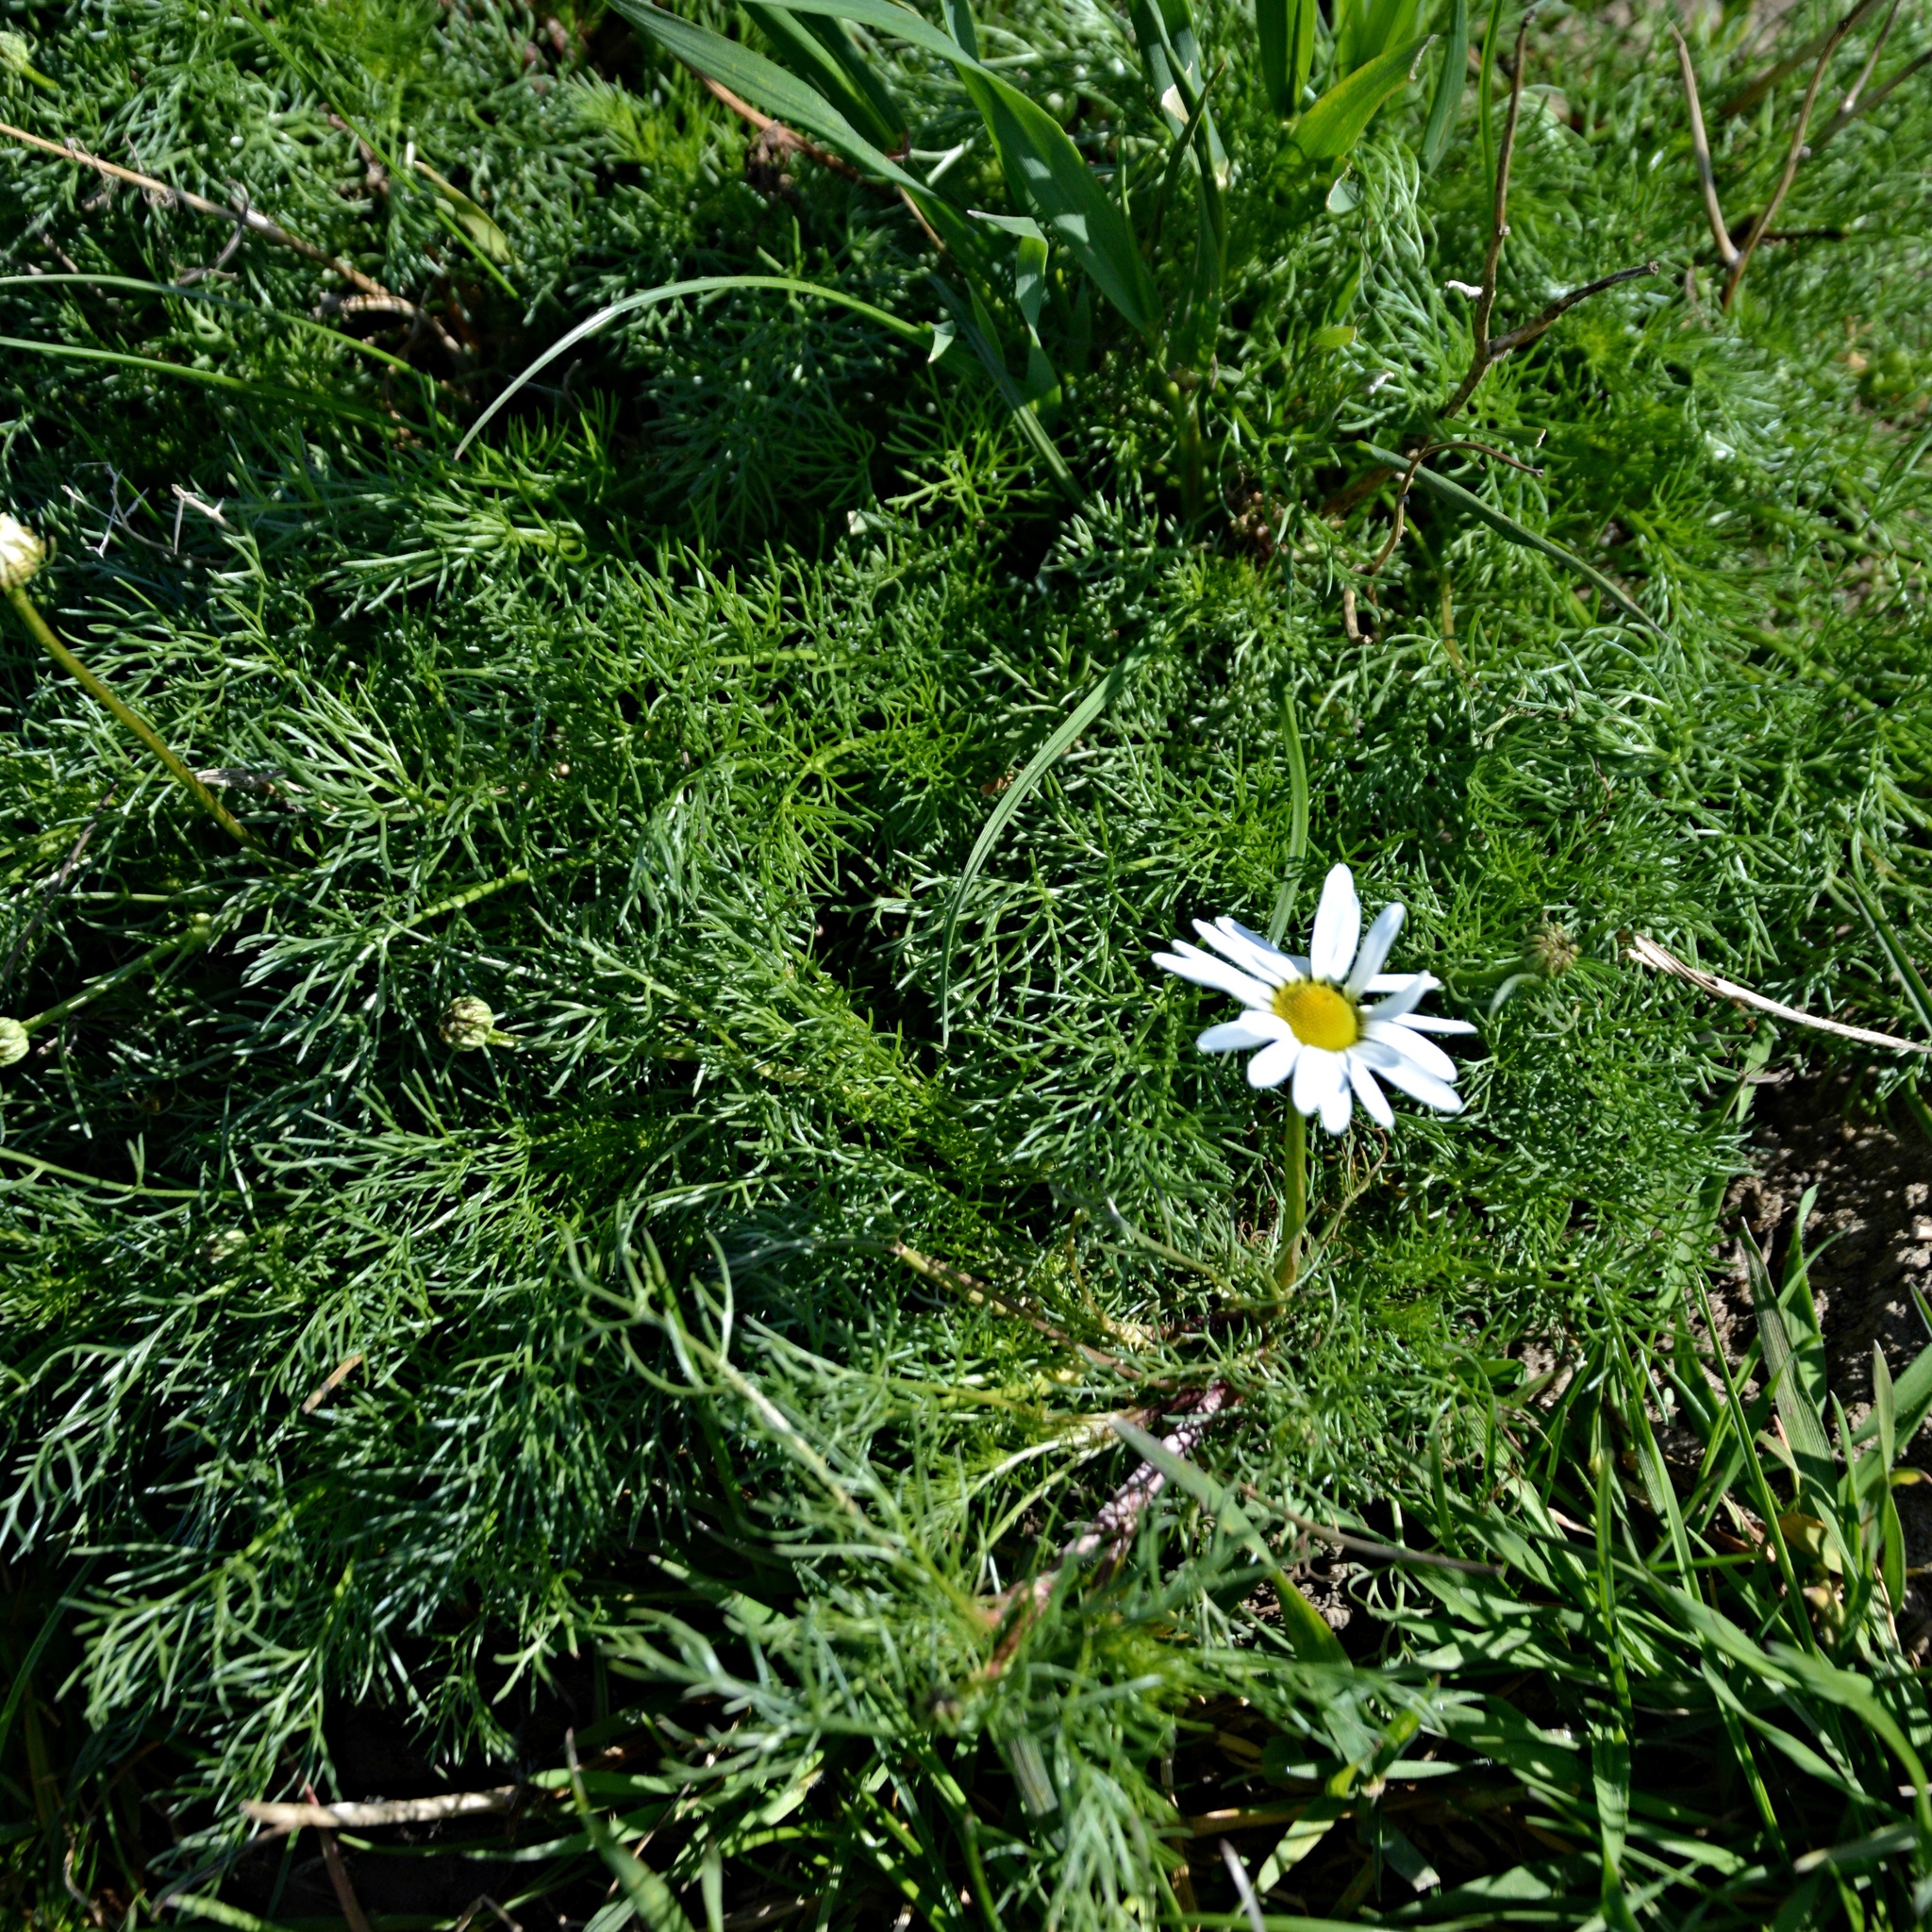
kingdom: Plantae
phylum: Tracheophyta
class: Magnoliopsida
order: Asterales
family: Asteraceae
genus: Tripleurospermum
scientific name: Tripleurospermum inodorum
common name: Scentless mayweed
